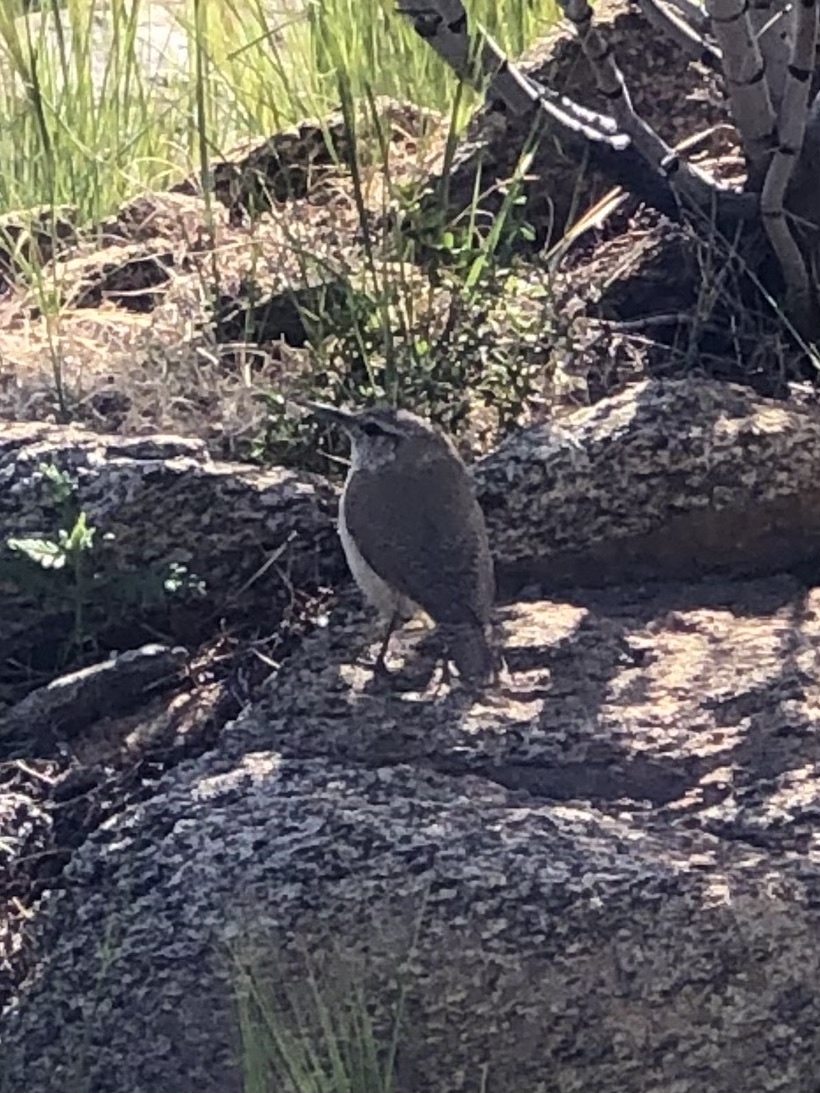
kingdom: Animalia
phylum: Chordata
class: Aves
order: Passeriformes
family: Troglodytidae
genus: Salpinctes
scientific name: Salpinctes obsoletus
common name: Rock wren
